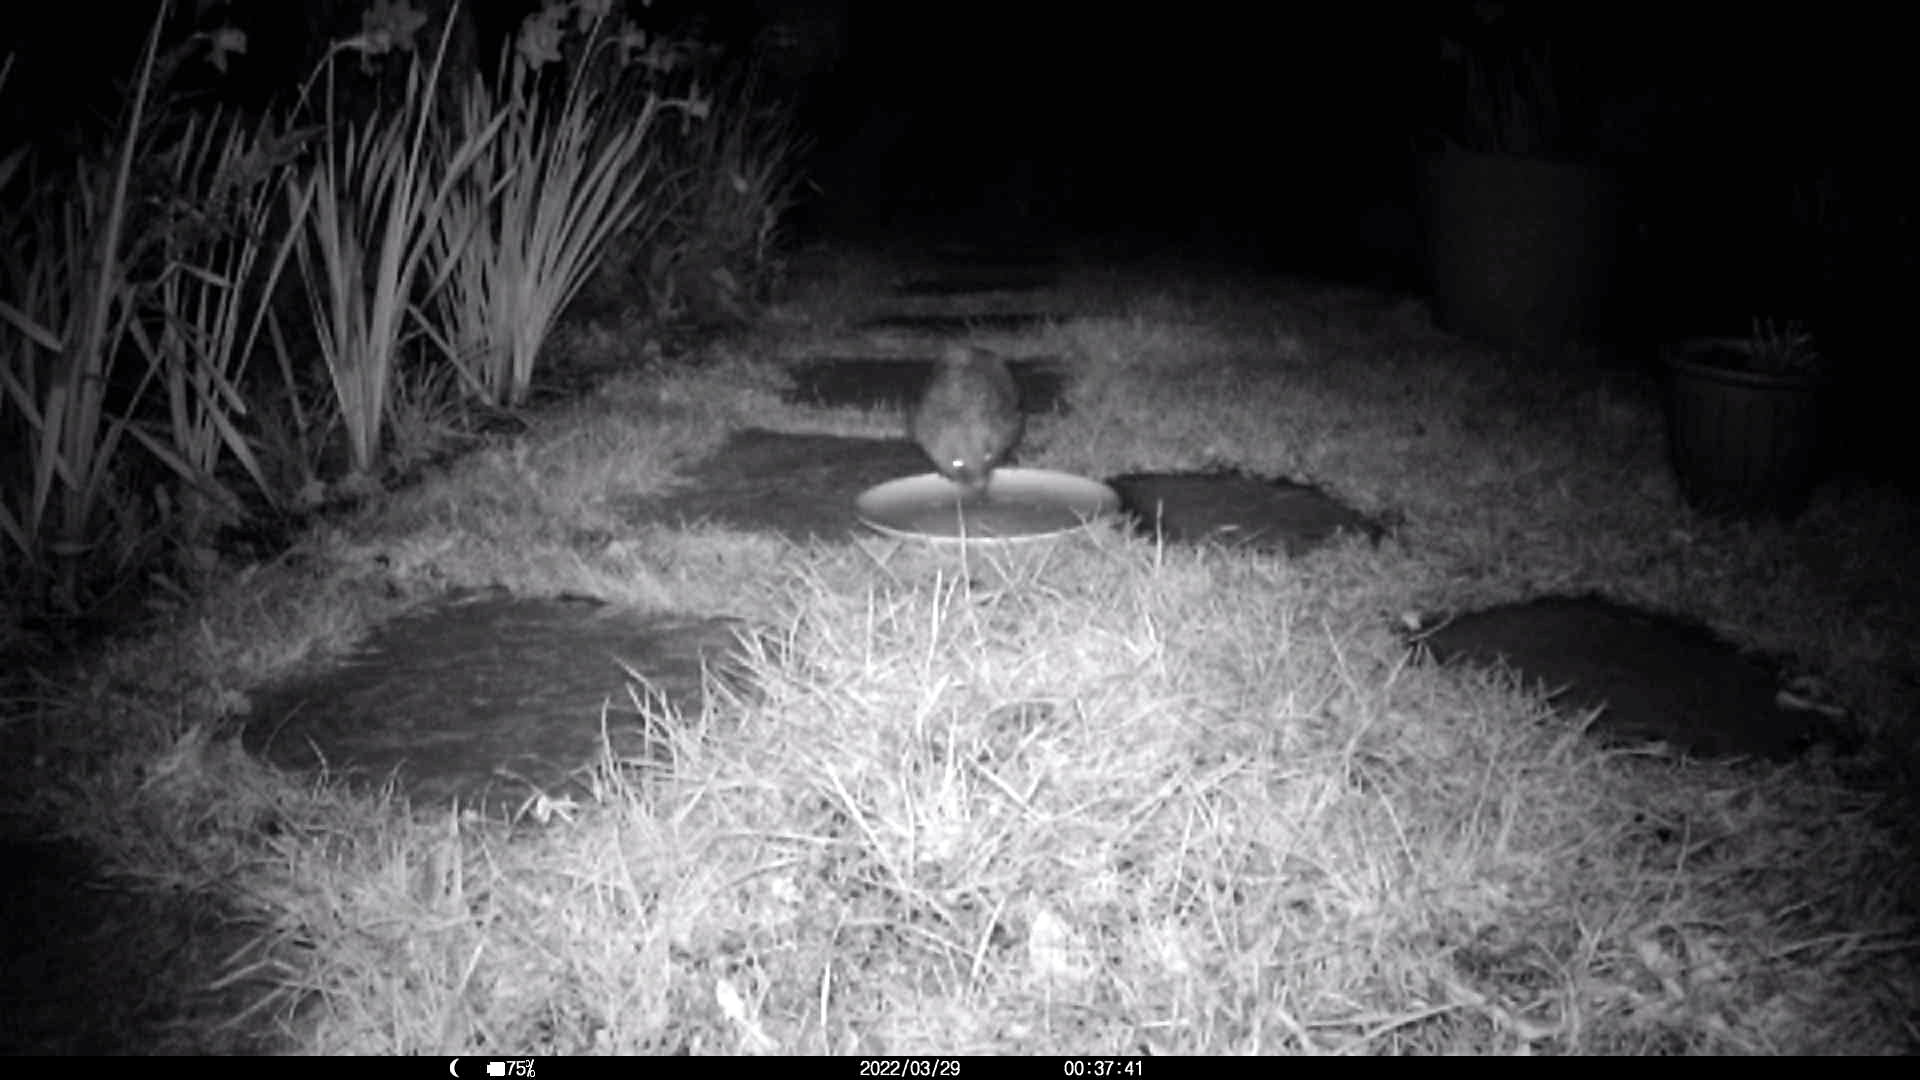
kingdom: Animalia
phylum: Chordata
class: Mammalia
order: Erinaceomorpha
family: Erinaceidae
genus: Erinaceus
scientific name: Erinaceus europaeus
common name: West european hedgehog
